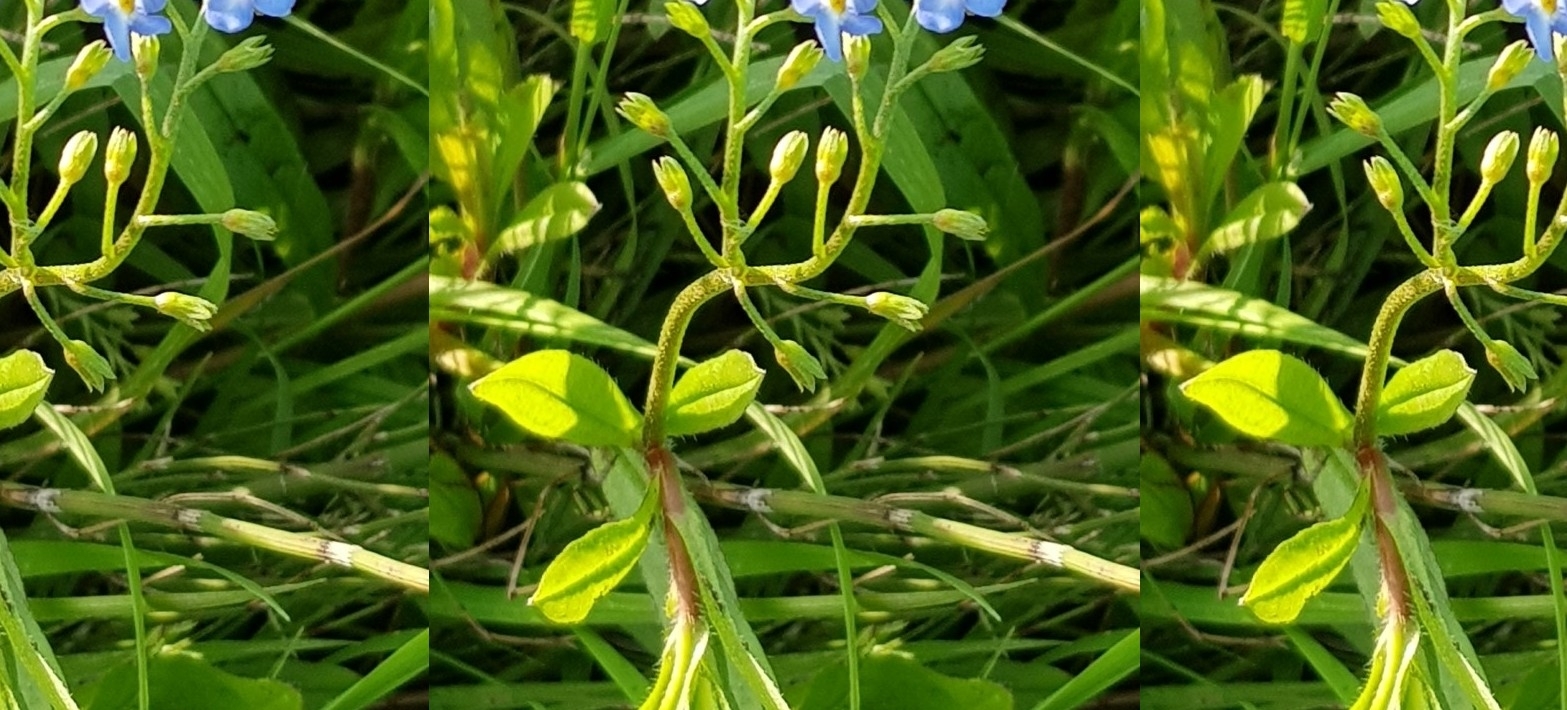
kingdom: Plantae
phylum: Tracheophyta
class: Magnoliopsida
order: Boraginales
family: Boraginaceae
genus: Myosotis
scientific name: Myosotis scorpioides
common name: Water forget-me-not
